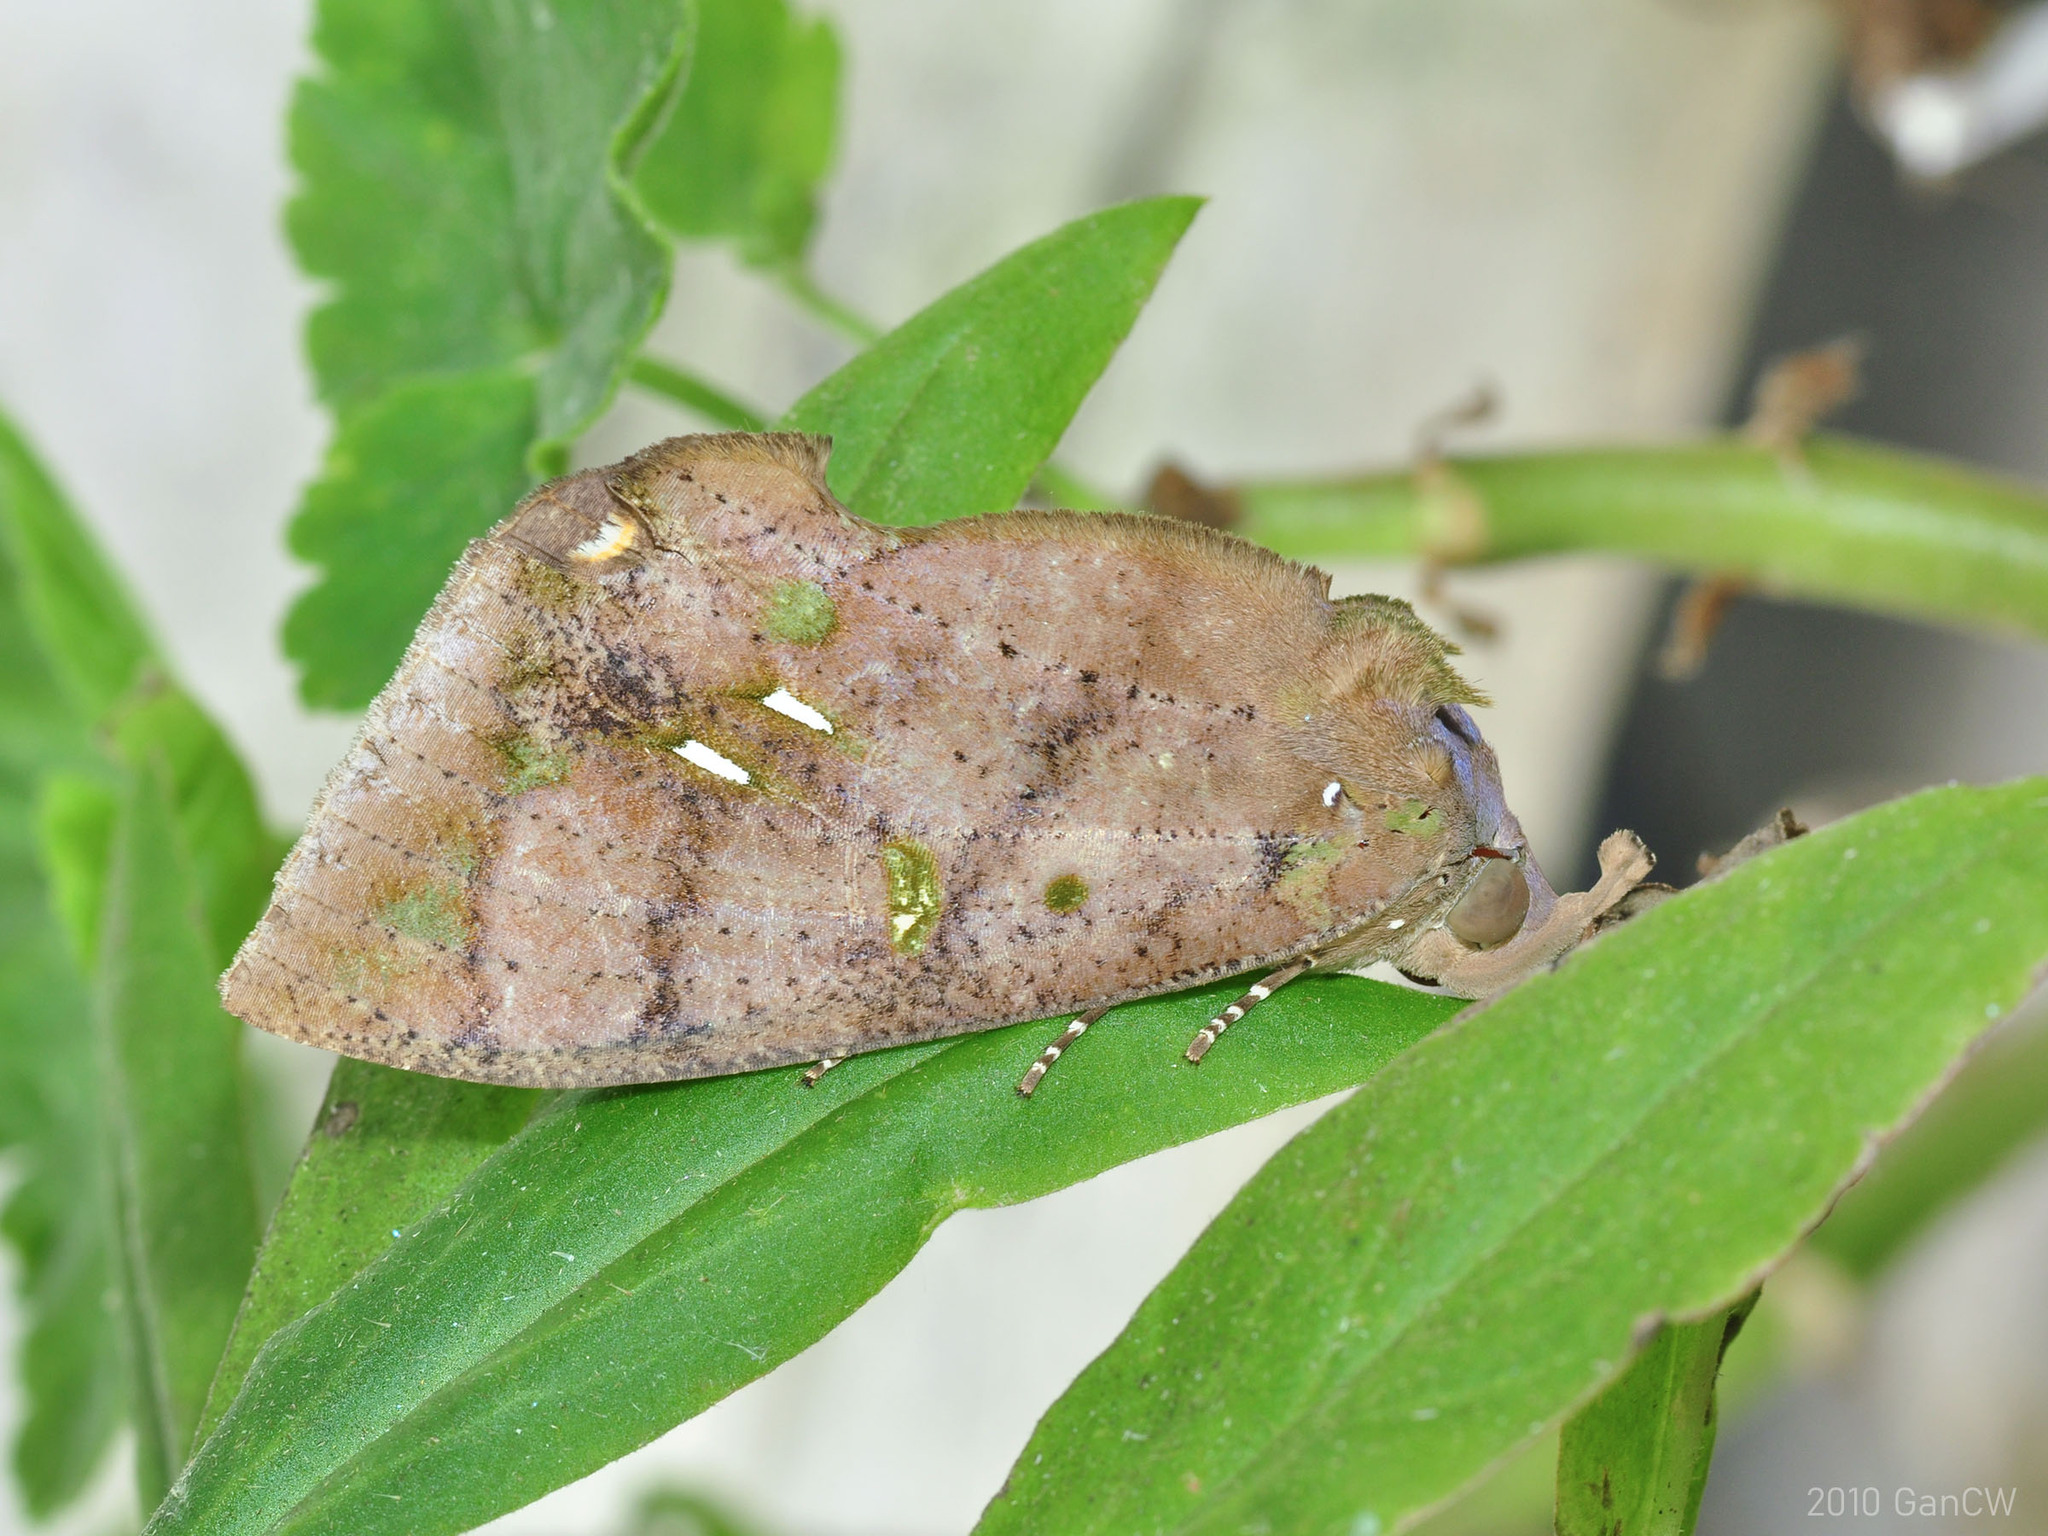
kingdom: Animalia
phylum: Arthropoda
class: Insecta
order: Lepidoptera
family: Erebidae
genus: Eudocima
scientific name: Eudocima discrepans
